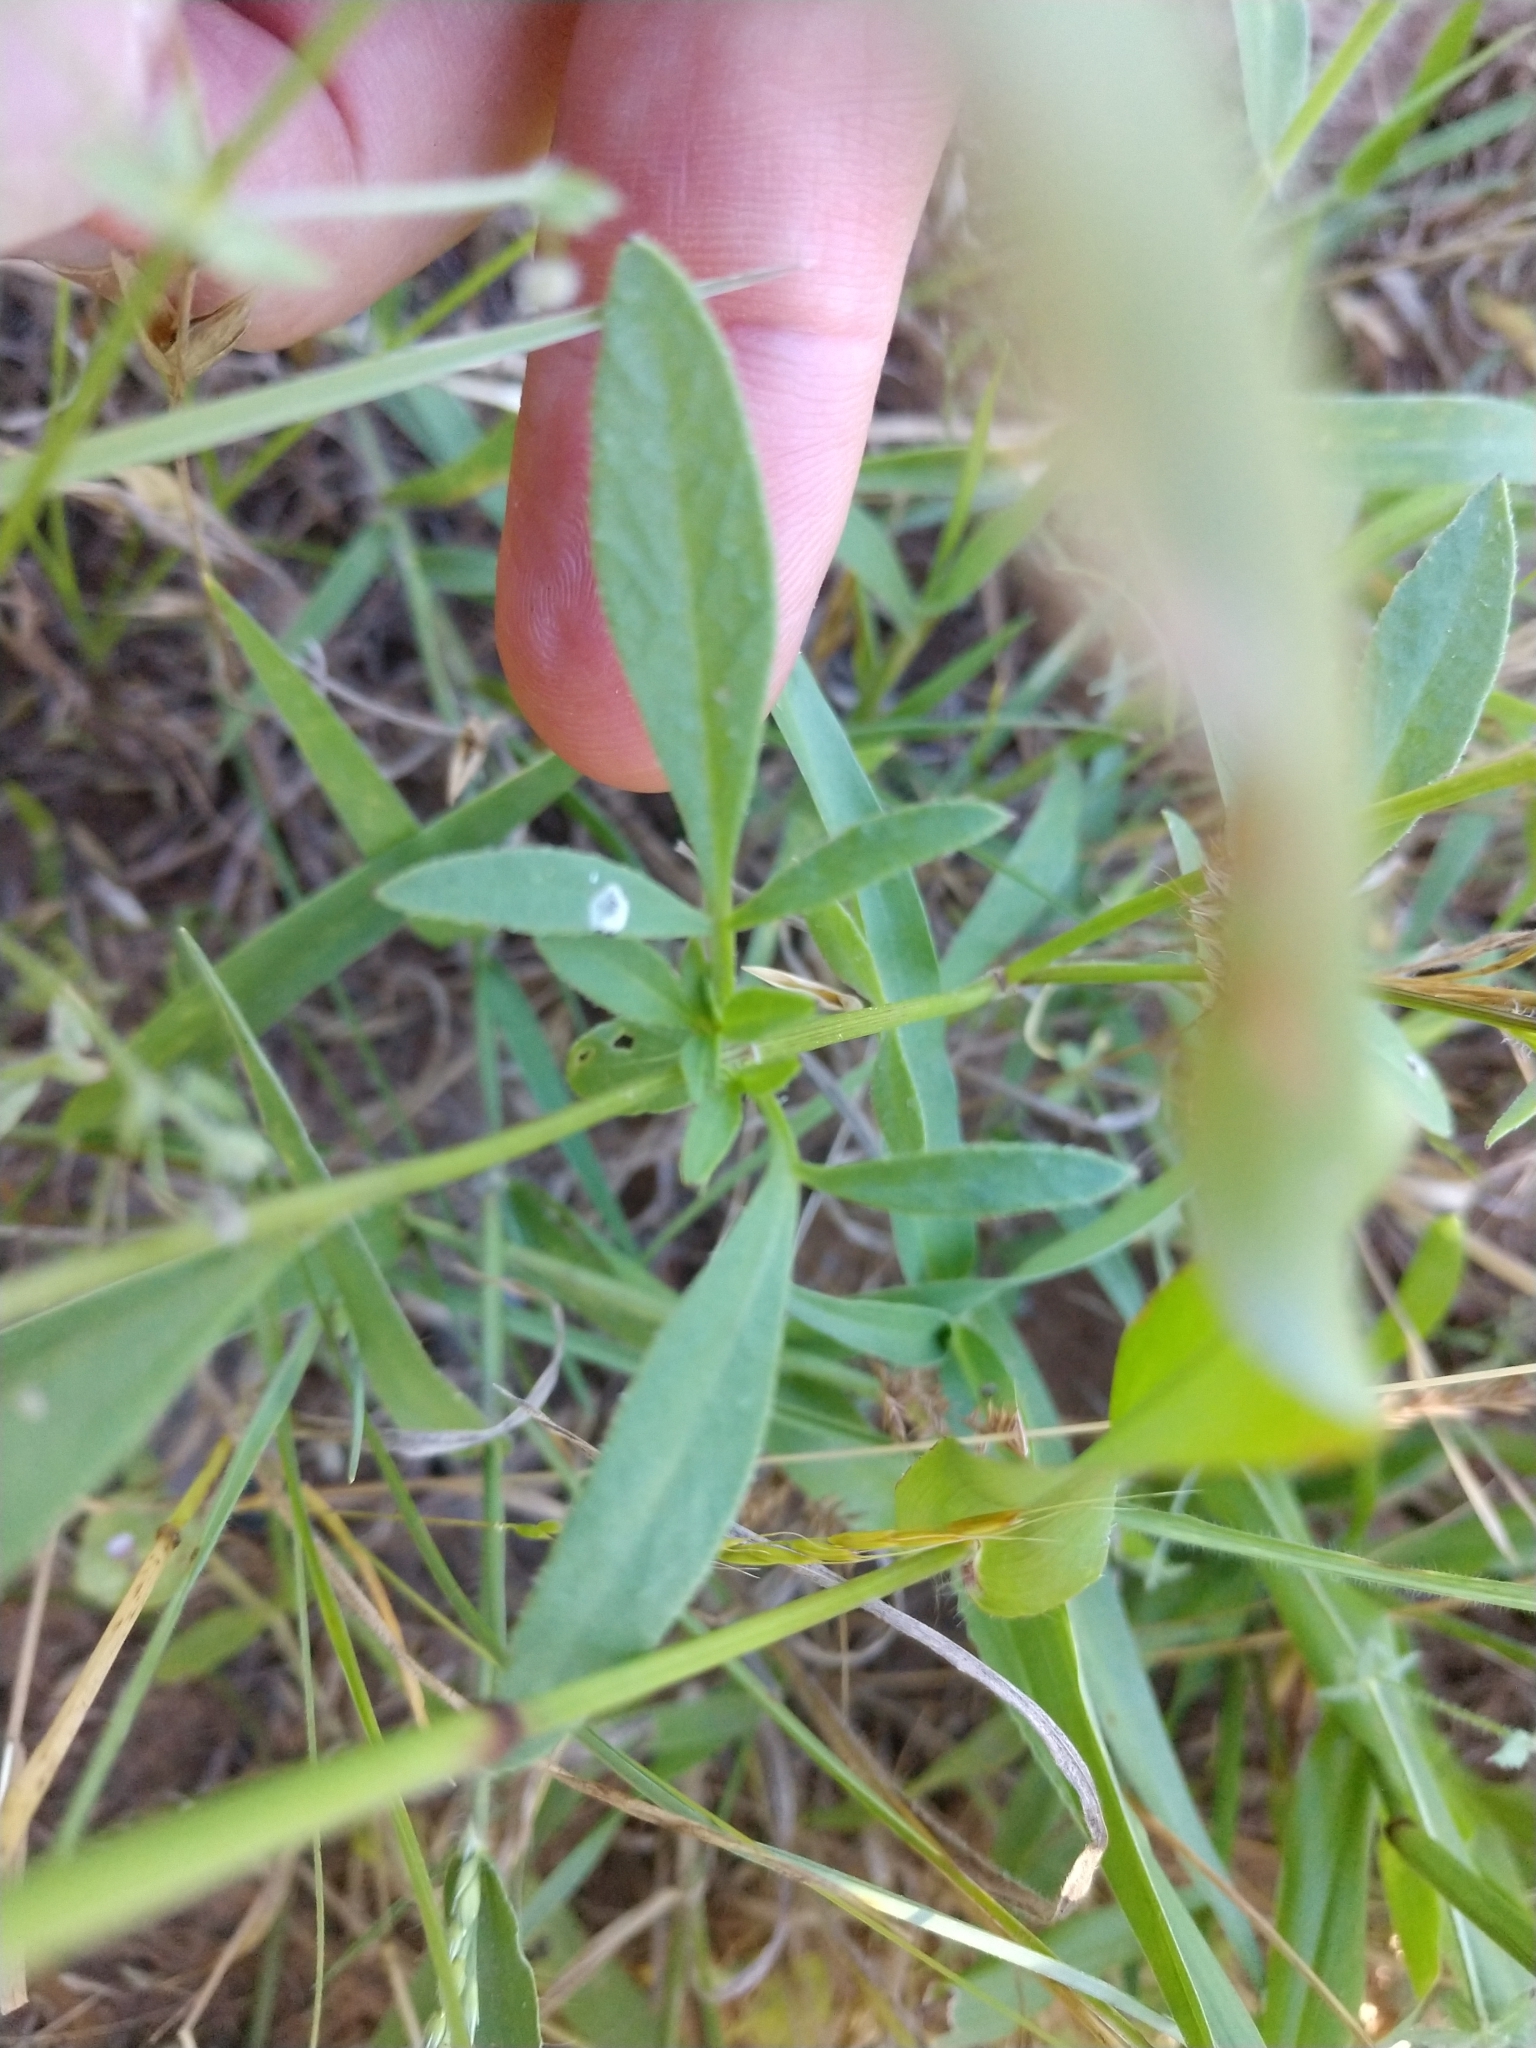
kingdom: Plantae
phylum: Tracheophyta
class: Magnoliopsida
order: Asterales
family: Asteraceae
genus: Coreopsis
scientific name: Coreopsis basalis
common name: Golden-mane coreopsis
